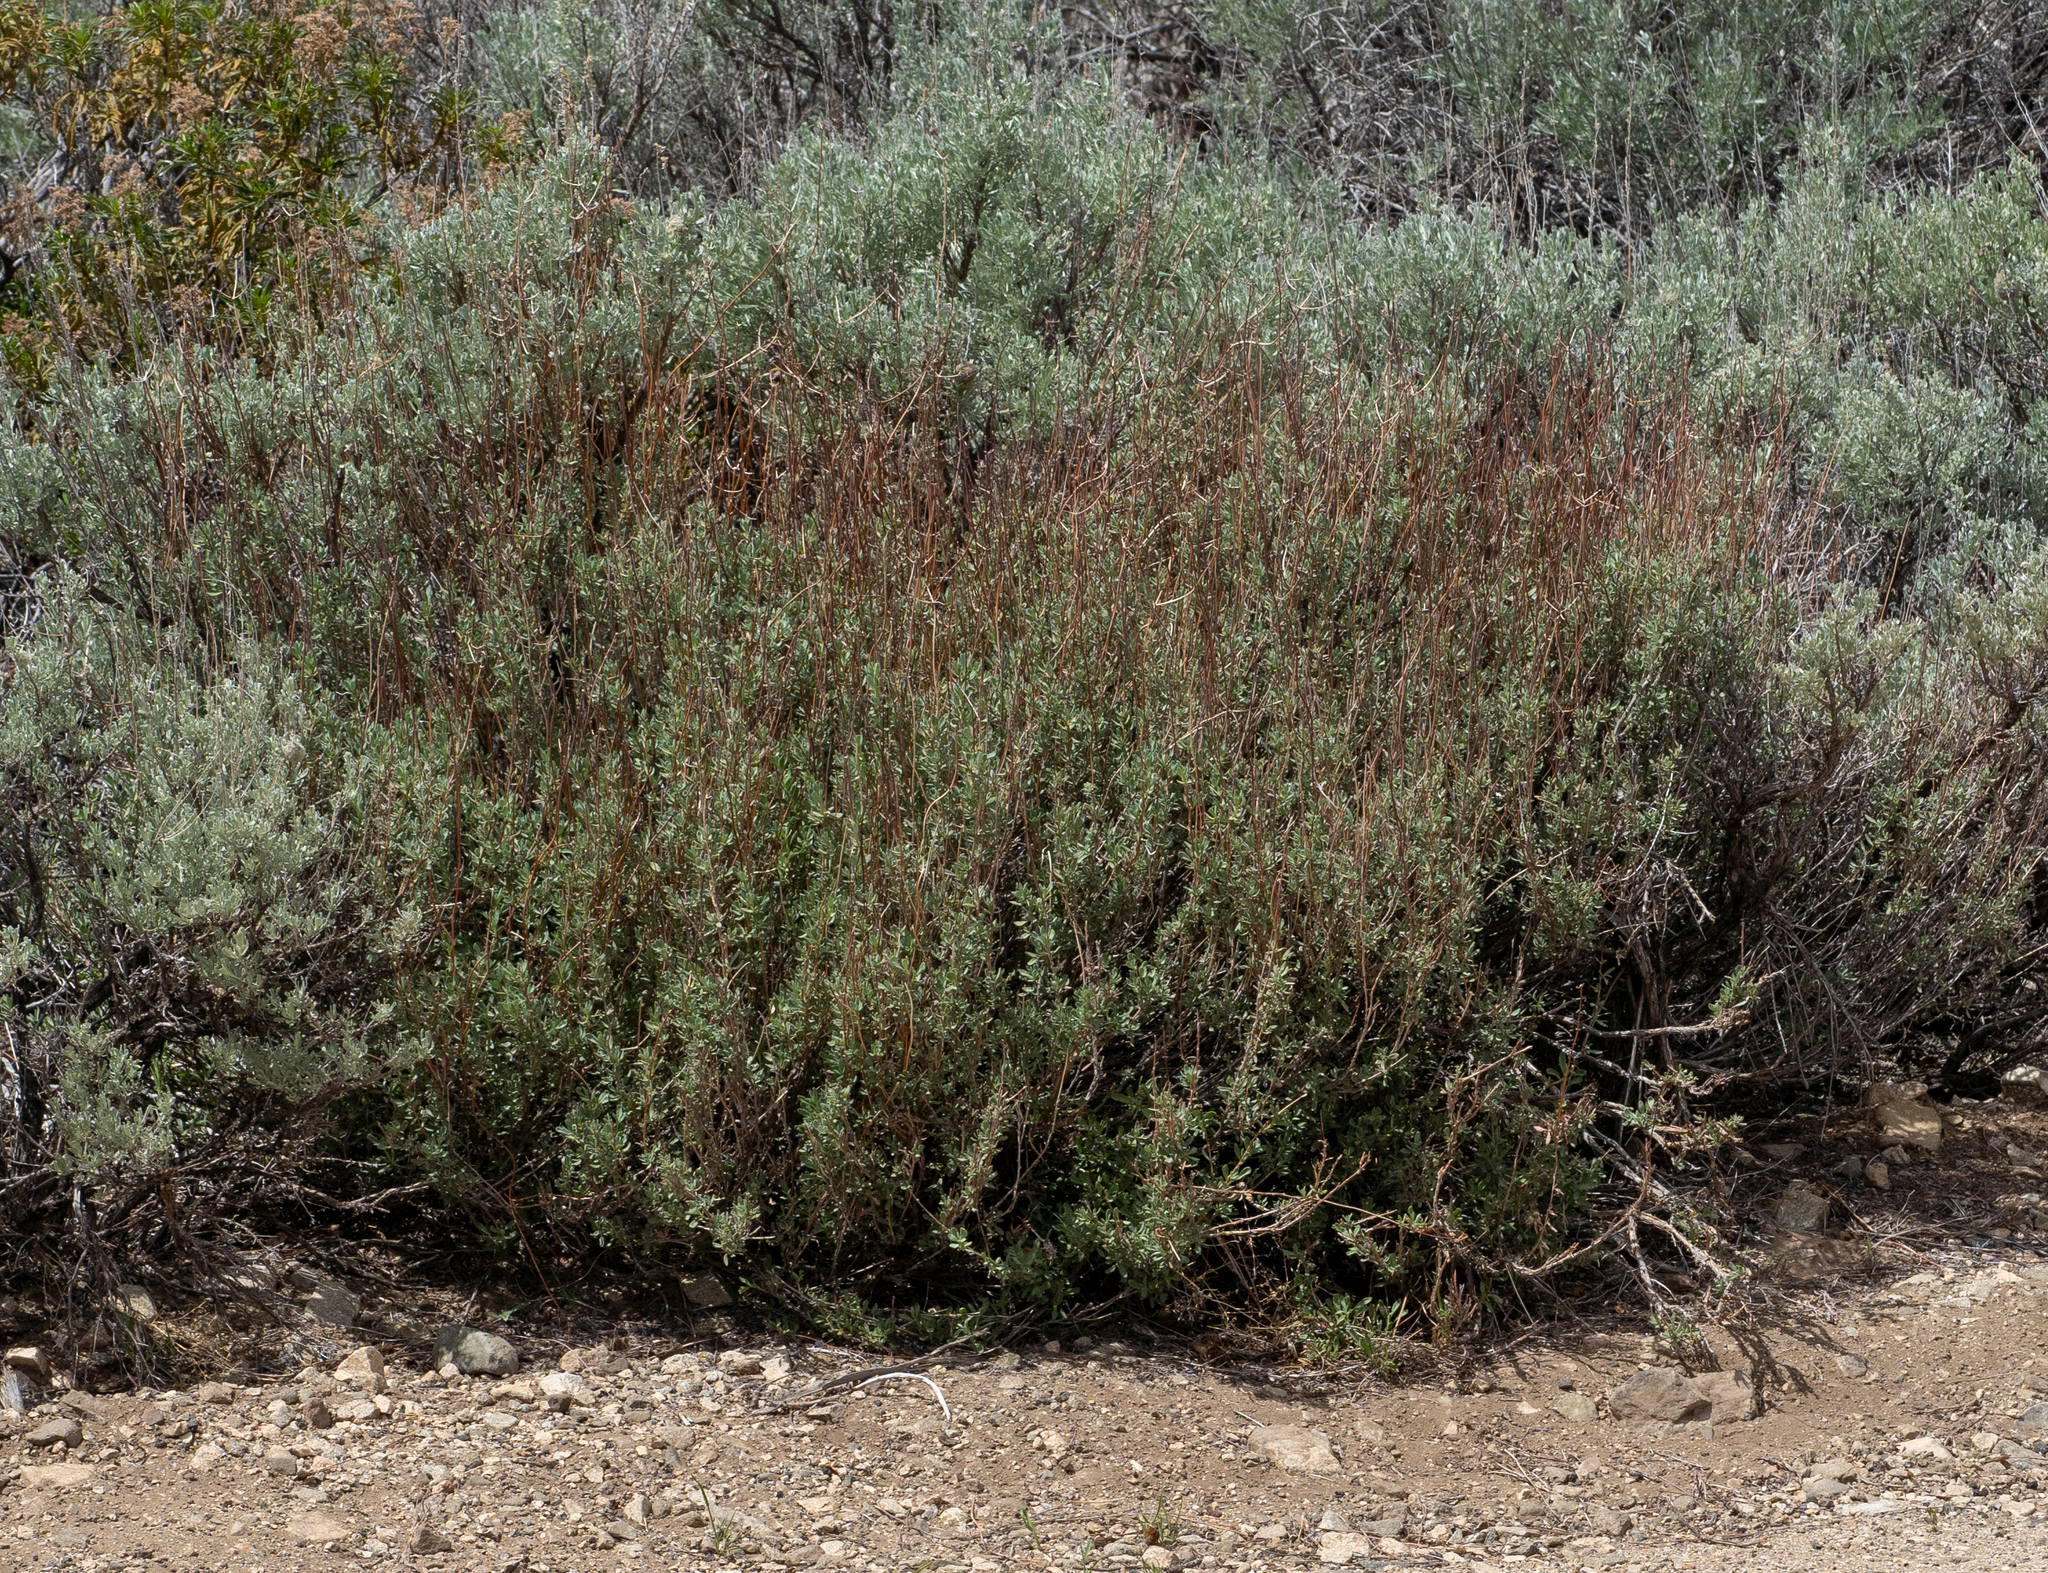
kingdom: Plantae
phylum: Tracheophyta
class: Magnoliopsida
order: Caryophyllales
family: Polygonaceae
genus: Eriogonum
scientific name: Eriogonum fasciculatum
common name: California wild buckwheat
